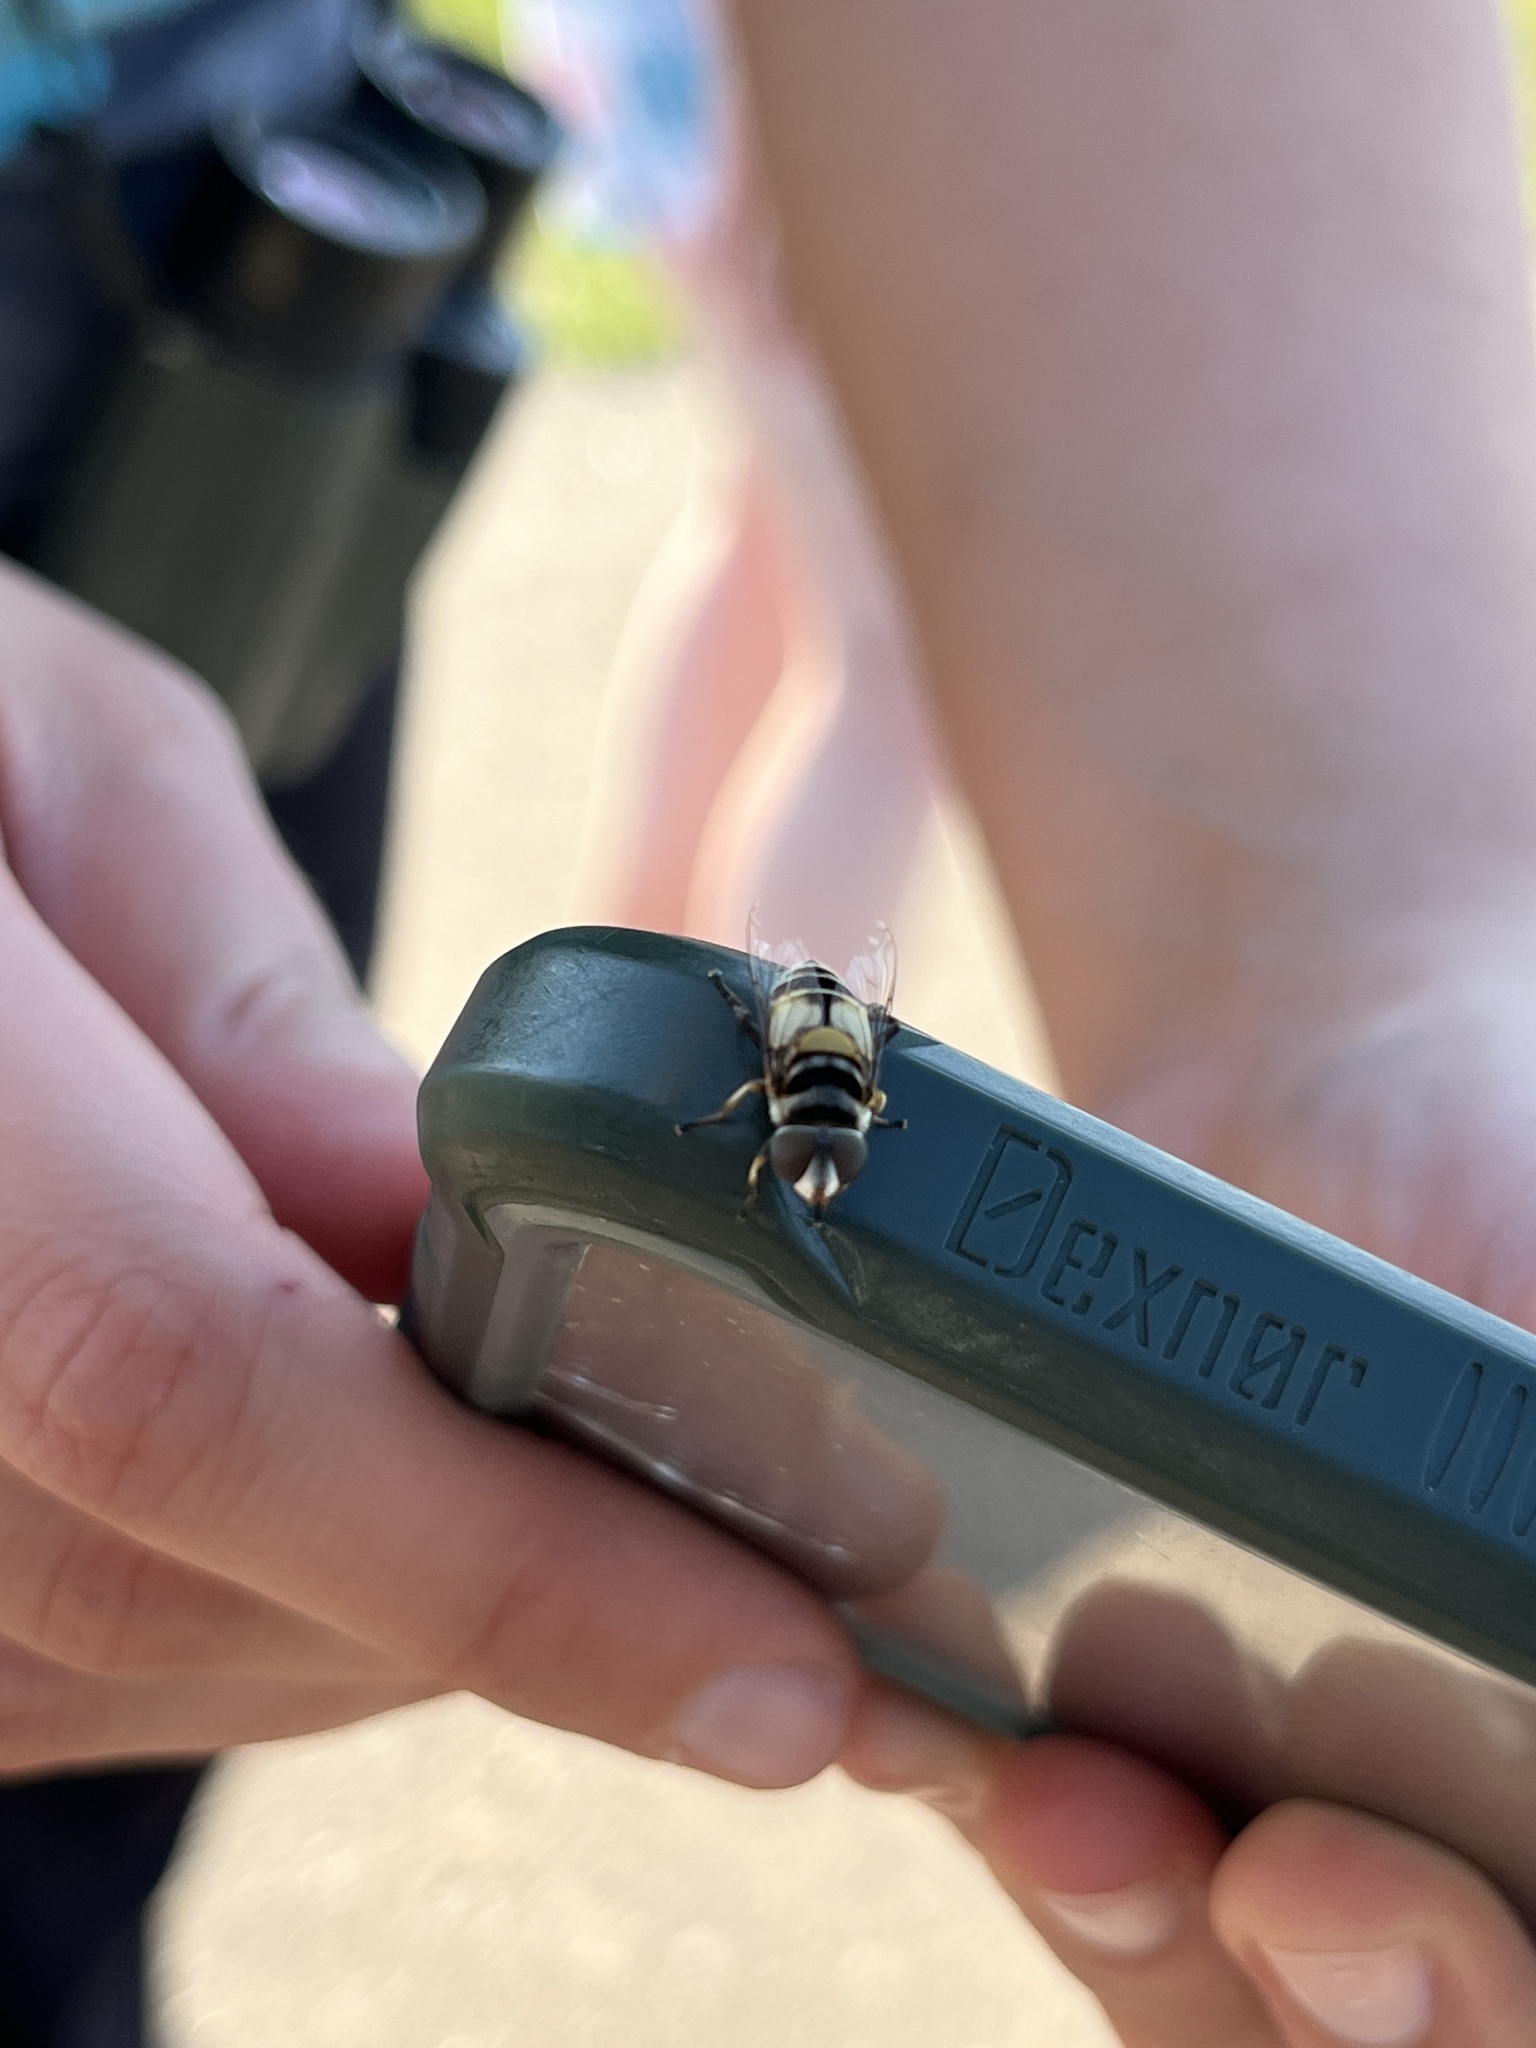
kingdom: Animalia
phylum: Arthropoda
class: Insecta
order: Diptera
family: Syrphidae
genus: Palpada
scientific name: Palpada albifrons
